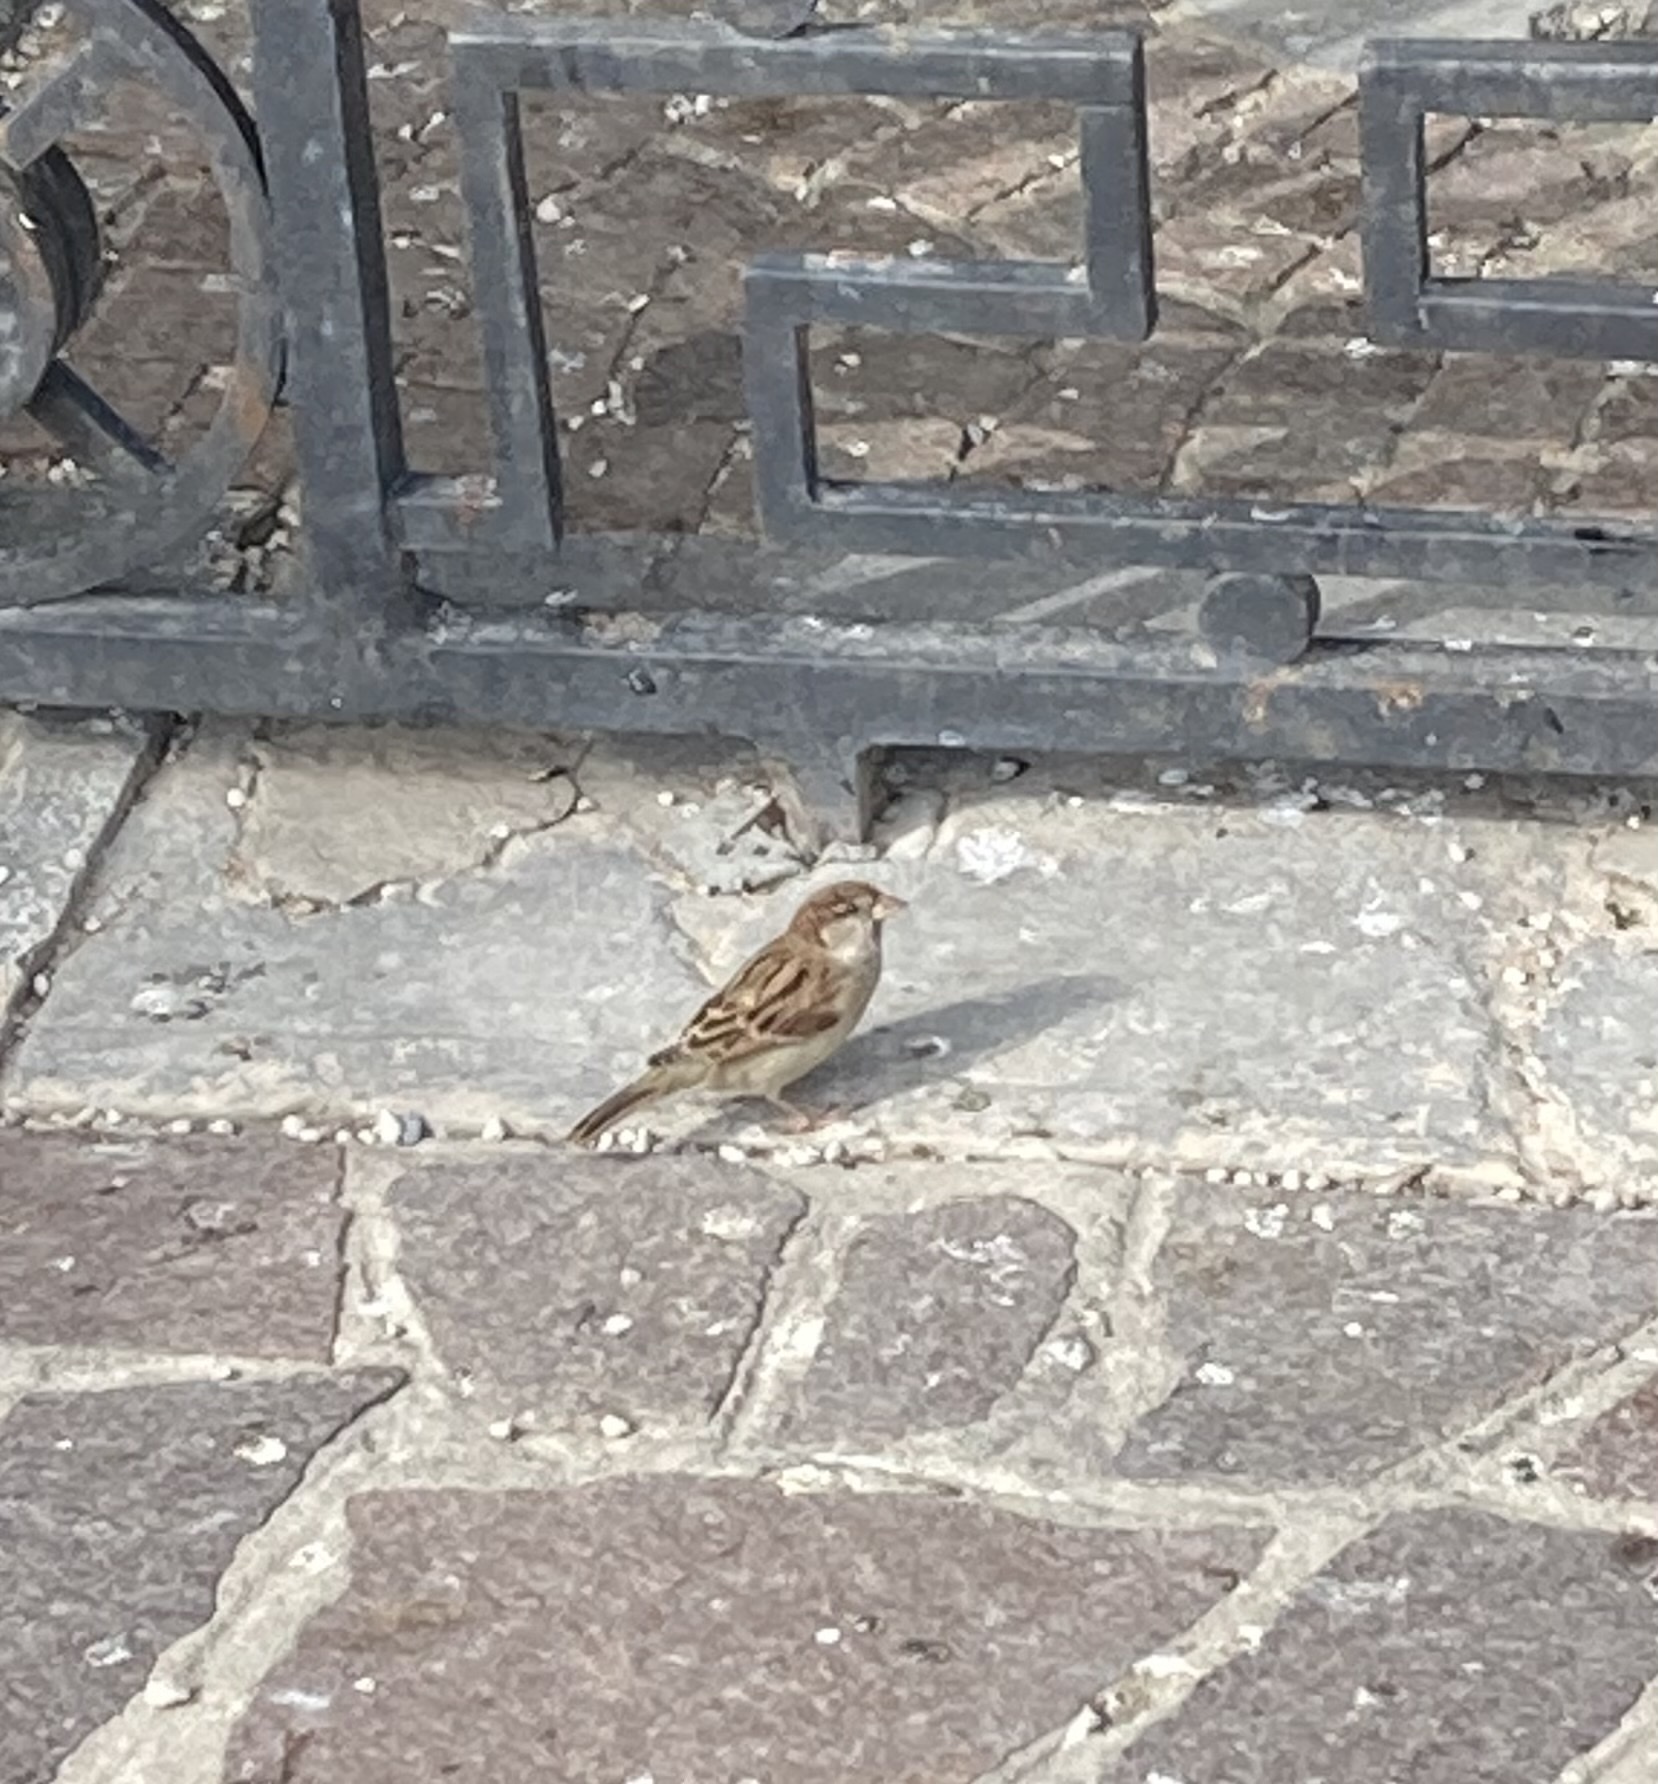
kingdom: Animalia
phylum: Chordata
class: Aves
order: Passeriformes
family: Passeridae
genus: Passer
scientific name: Passer italiae
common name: Italian sparrow
